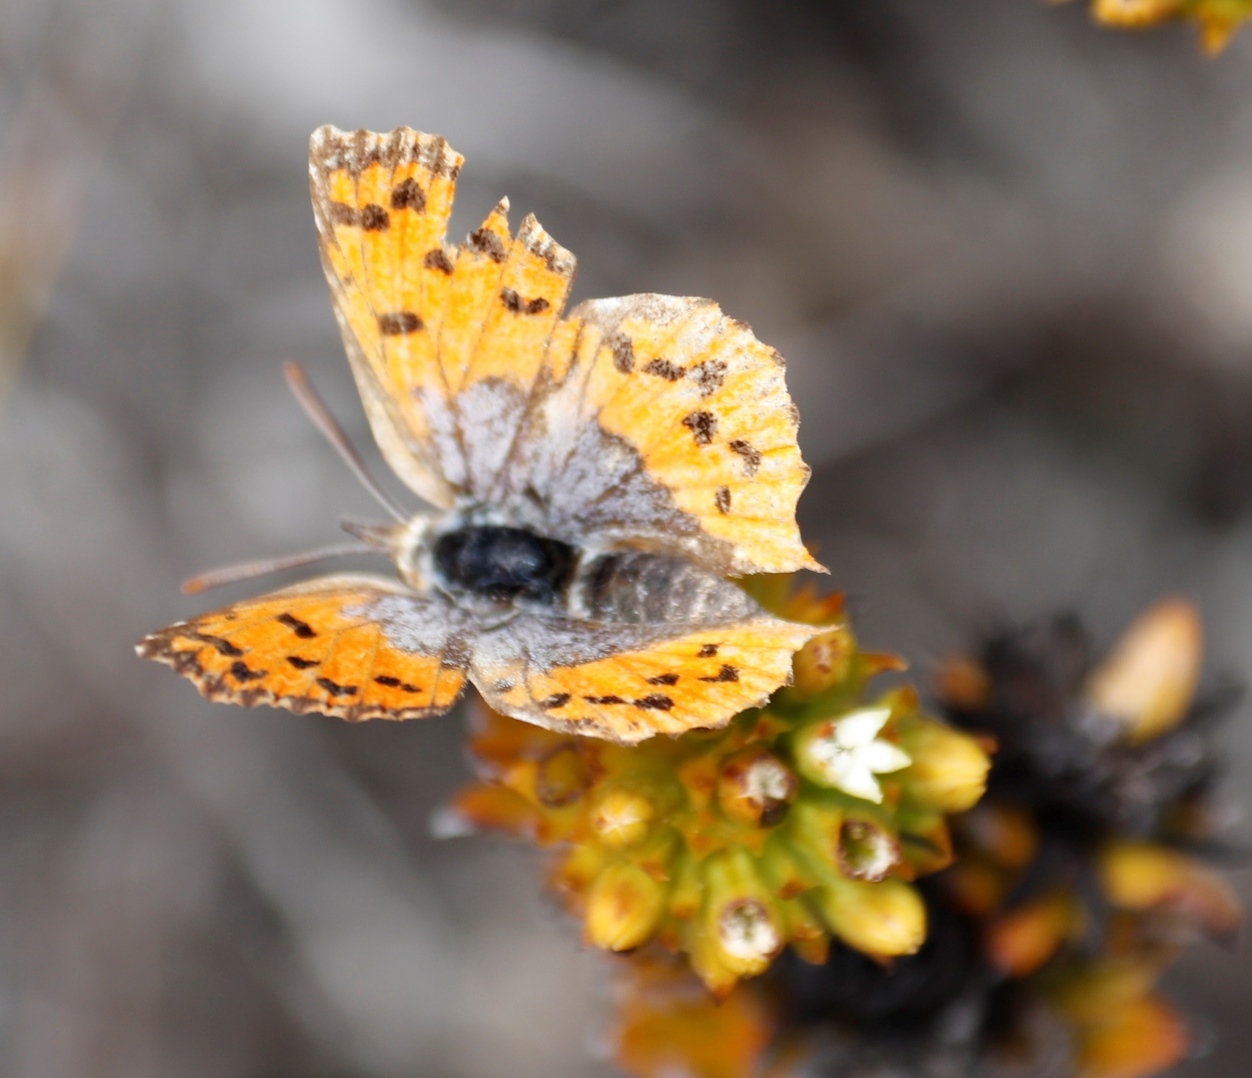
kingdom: Animalia
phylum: Arthropoda
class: Insecta
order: Lepidoptera
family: Lycaenidae
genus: Chrysoritis
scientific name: Chrysoritis thysbe
